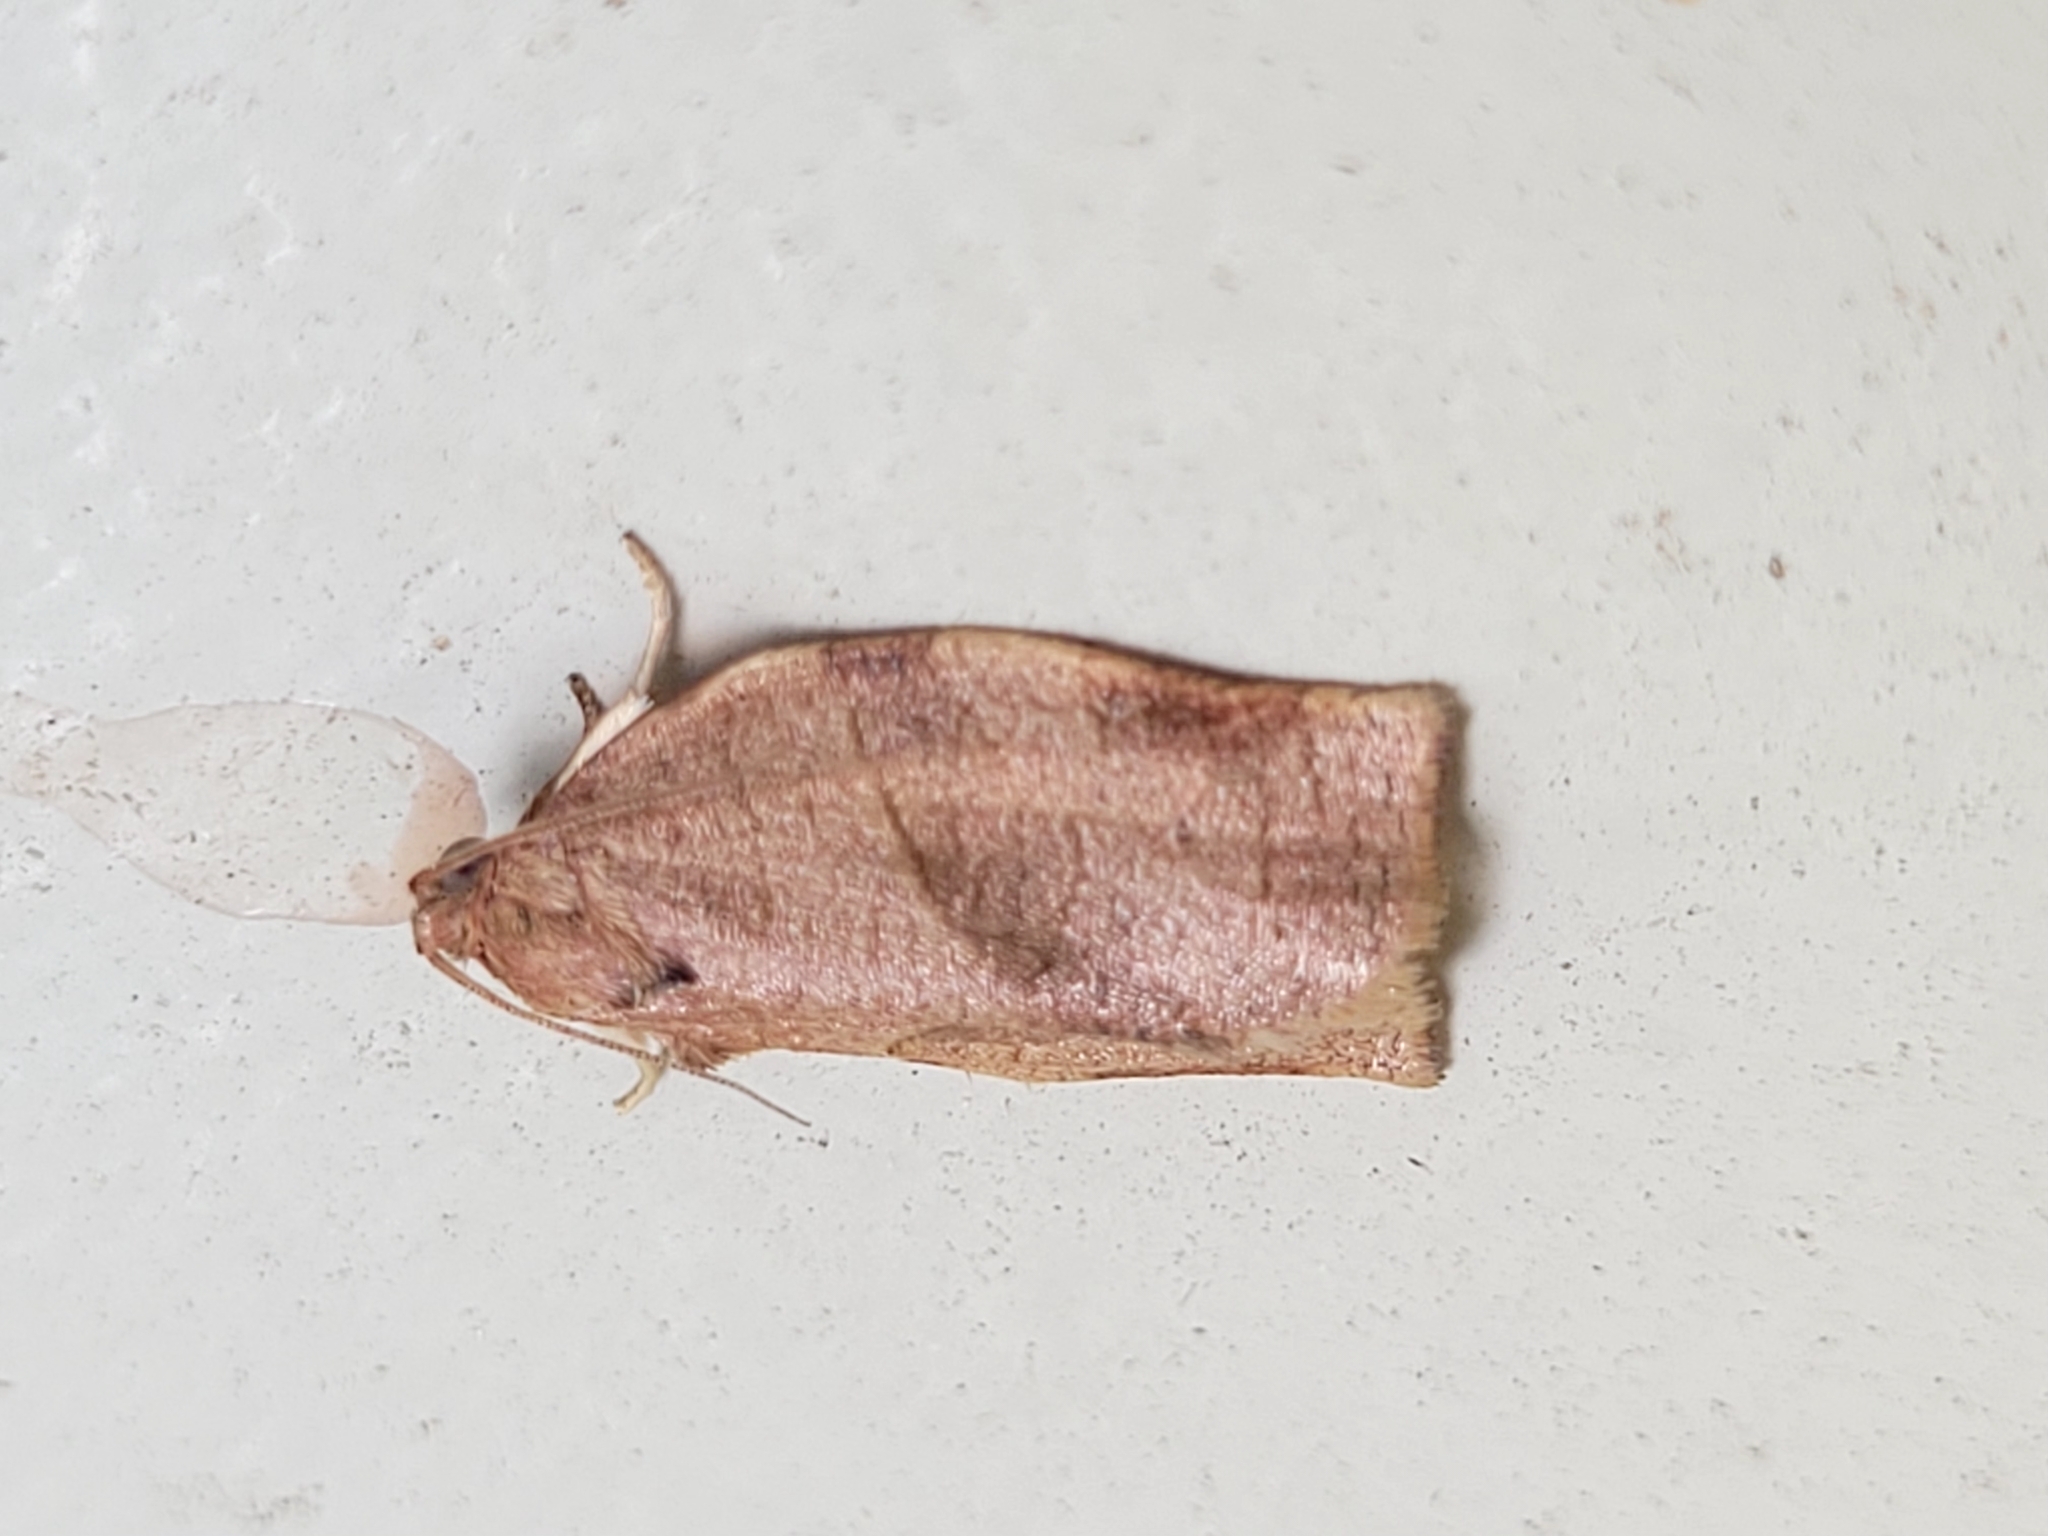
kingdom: Animalia
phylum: Arthropoda
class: Insecta
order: Lepidoptera
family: Tortricidae
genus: Choristoneura
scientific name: Choristoneura rosaceana
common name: Oblique-banded leafroller moth
